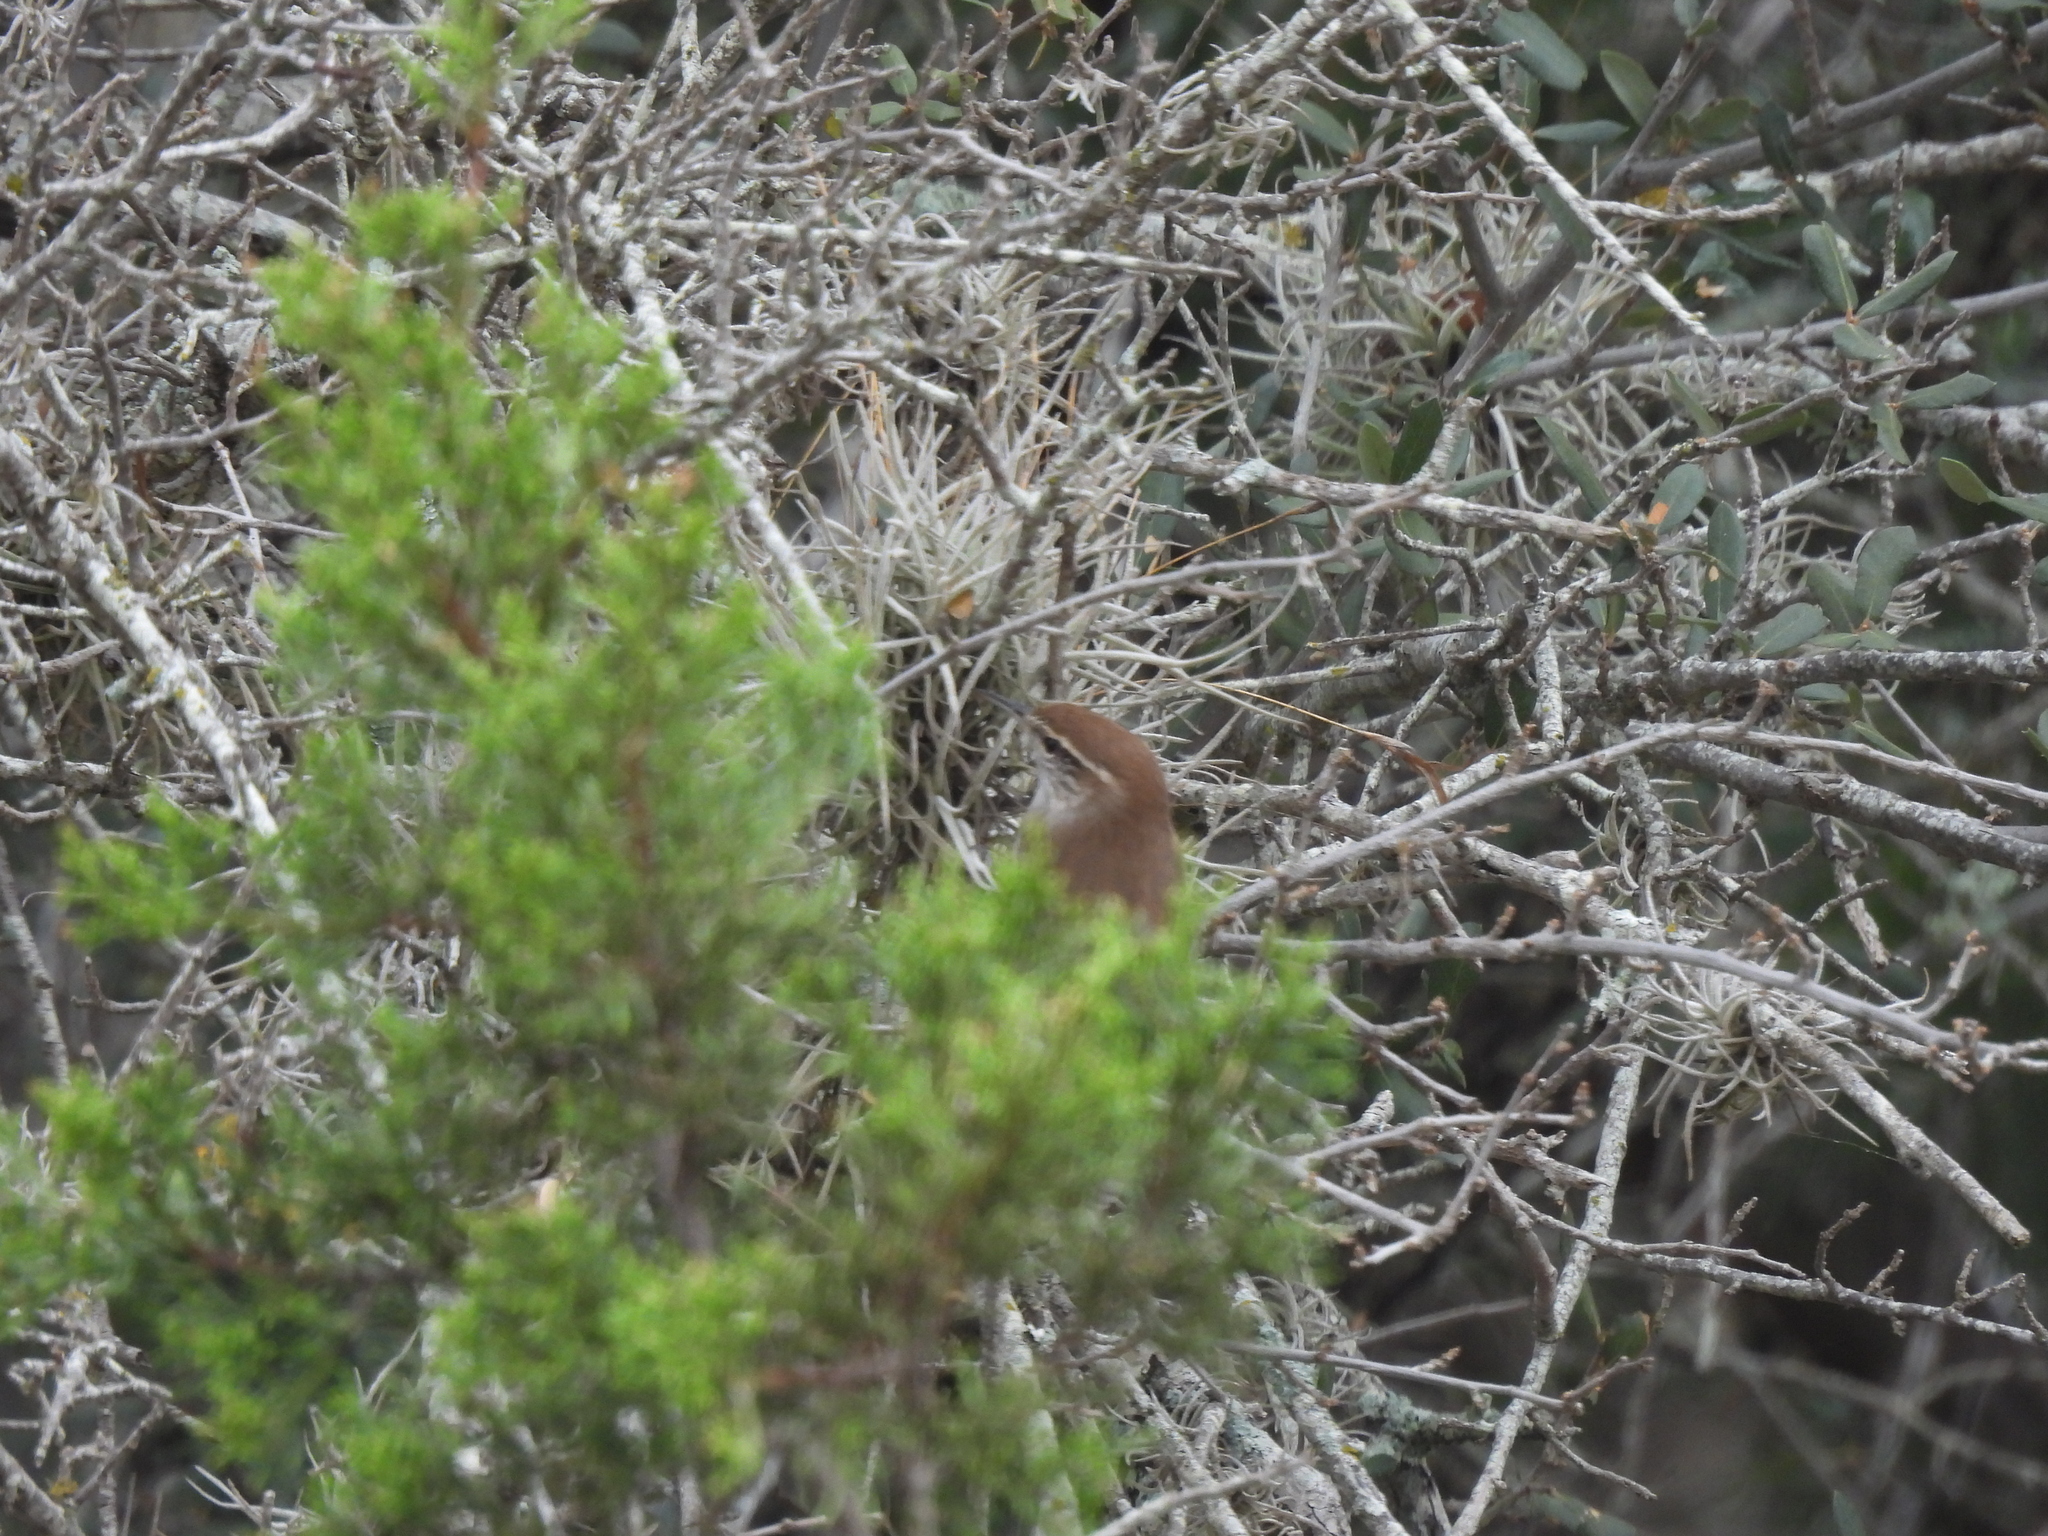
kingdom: Animalia
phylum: Chordata
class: Aves
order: Passeriformes
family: Troglodytidae
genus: Thryomanes
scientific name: Thryomanes bewickii
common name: Bewick's wren
